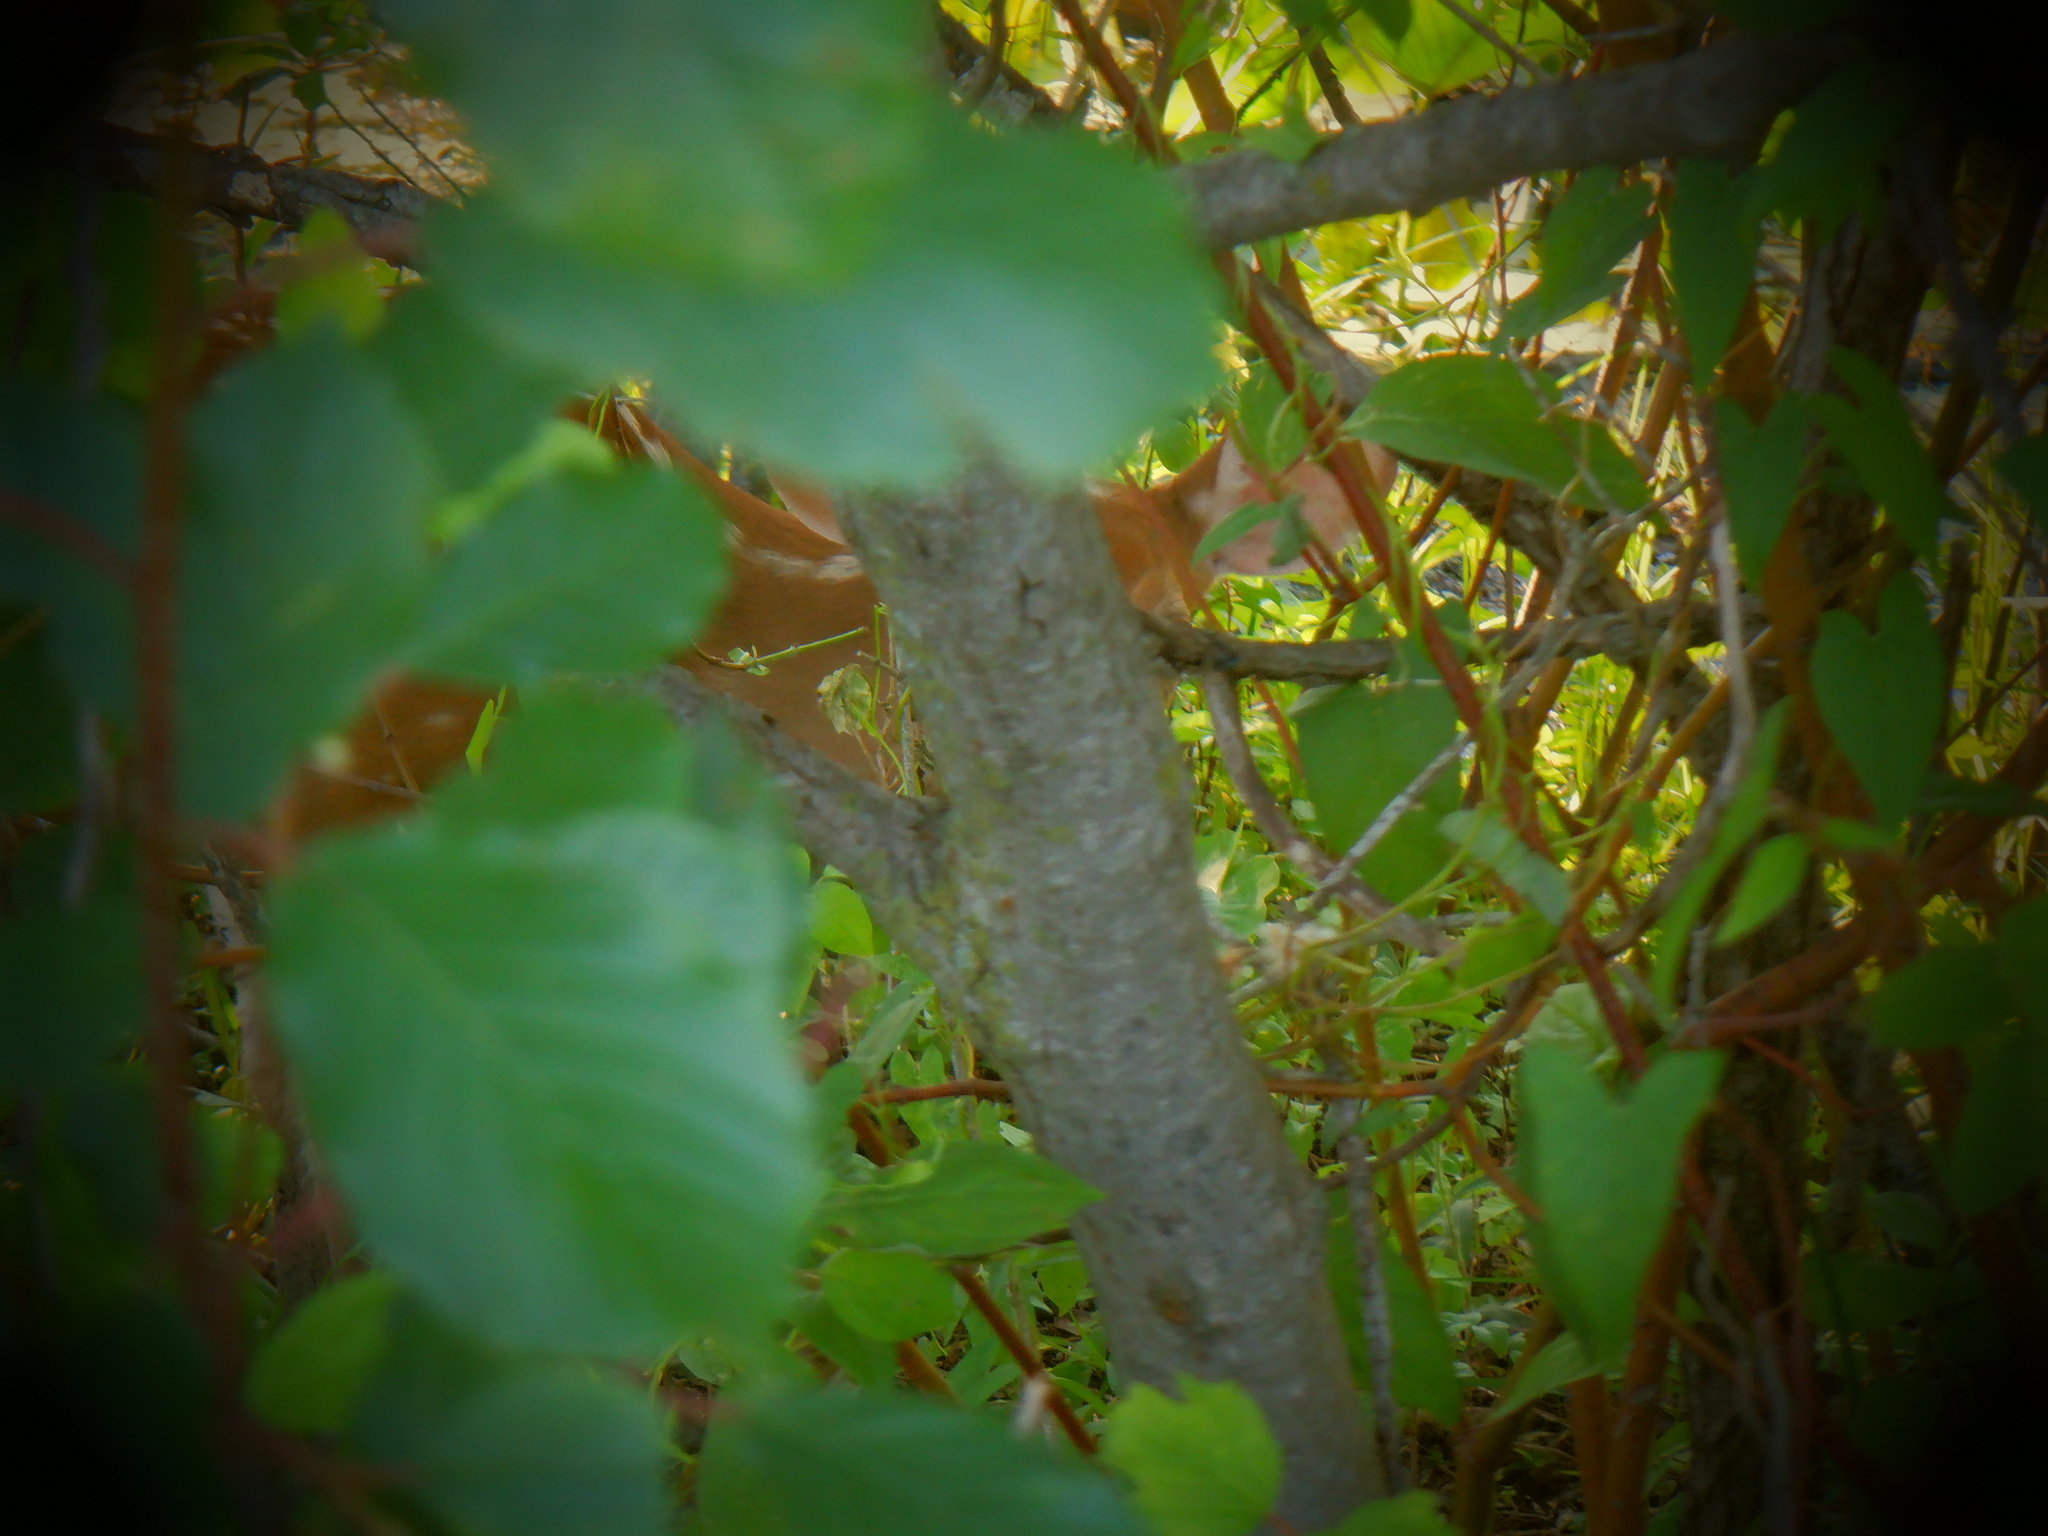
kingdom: Animalia
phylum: Chordata
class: Mammalia
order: Artiodactyla
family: Cervidae
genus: Odocoileus
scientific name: Odocoileus virginianus
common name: White-tailed deer
